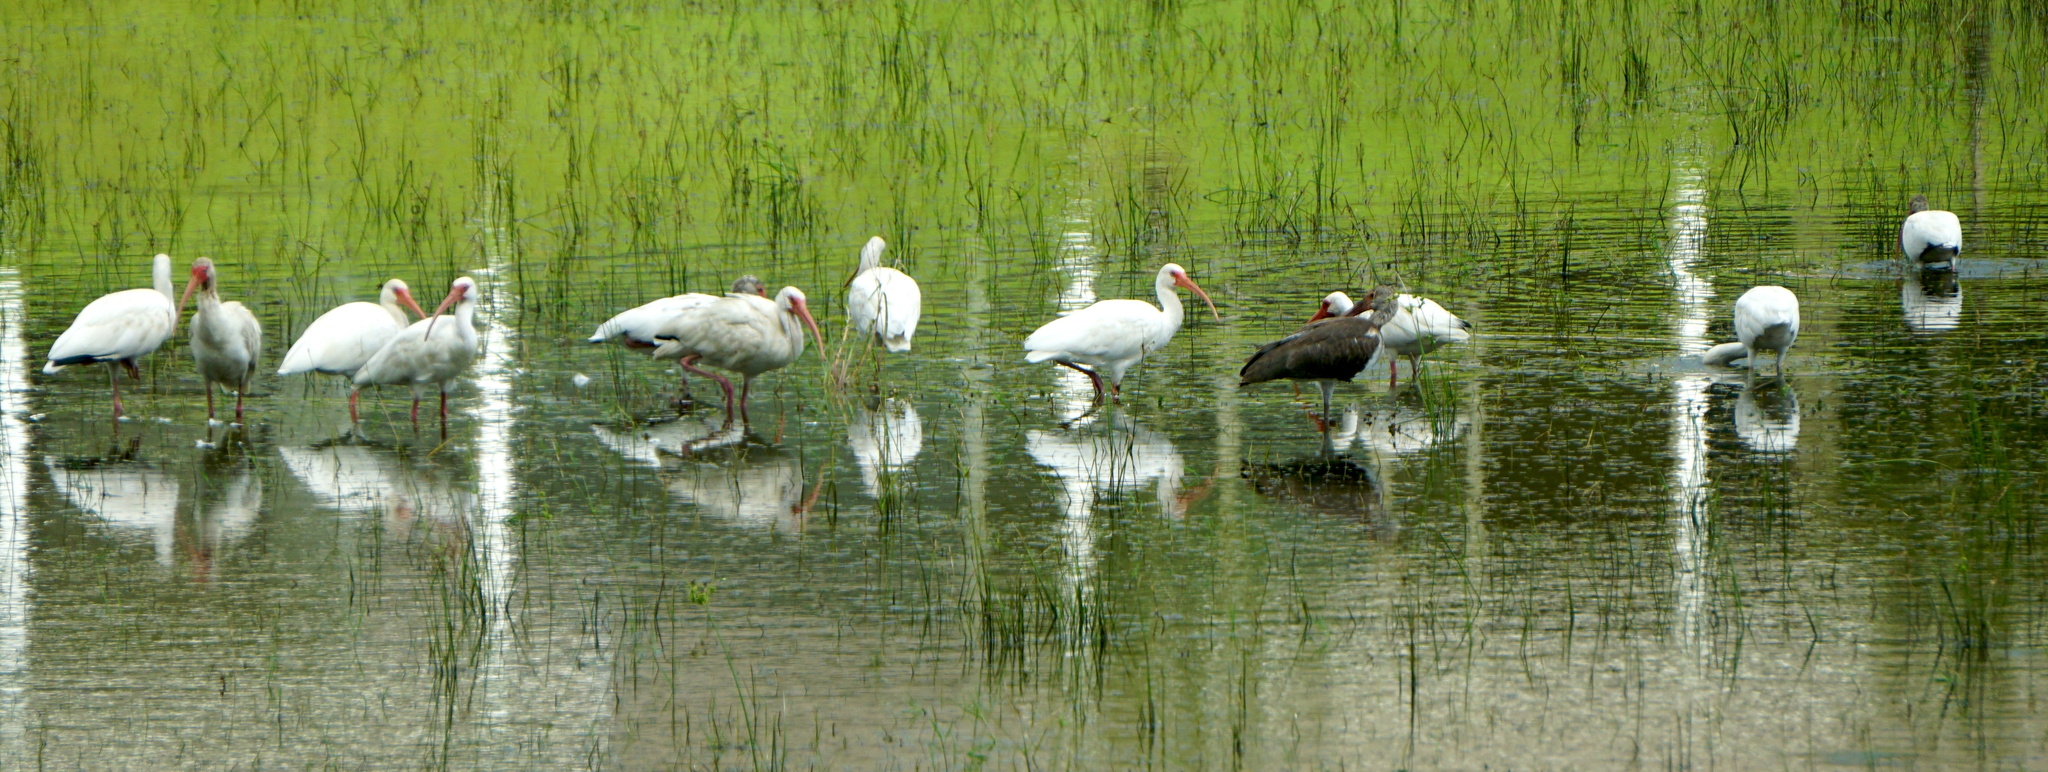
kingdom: Animalia
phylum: Chordata
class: Aves
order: Pelecaniformes
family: Threskiornithidae
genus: Eudocimus
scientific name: Eudocimus albus
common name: White ibis
